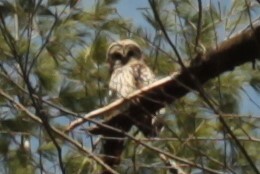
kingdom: Animalia
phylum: Chordata
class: Aves
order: Strigiformes
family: Strigidae
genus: Strix
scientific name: Strix varia
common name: Barred owl
